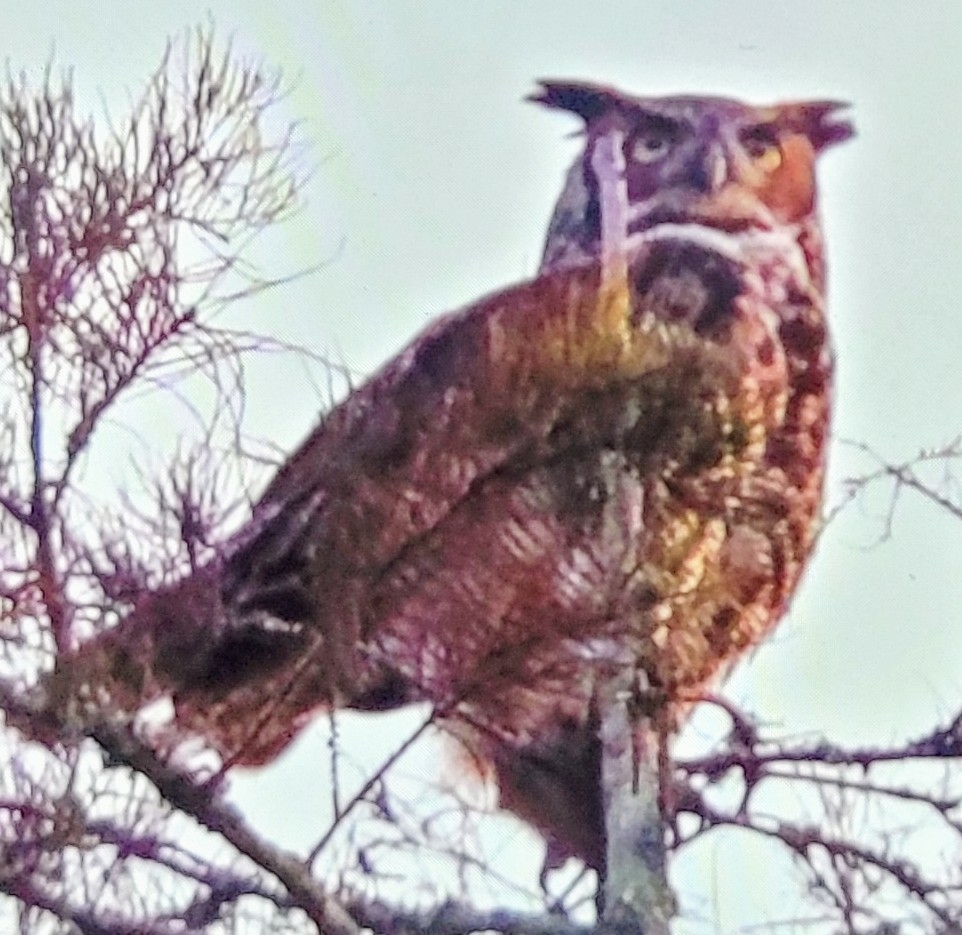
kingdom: Animalia
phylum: Chordata
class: Aves
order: Strigiformes
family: Strigidae
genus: Bubo
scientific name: Bubo virginianus
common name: Great horned owl
